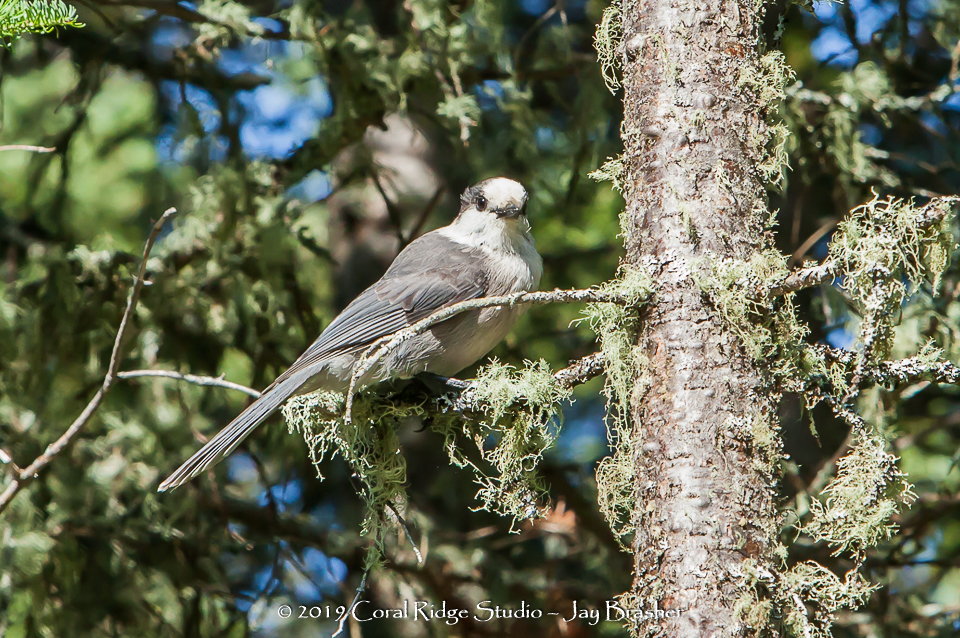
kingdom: Animalia
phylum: Chordata
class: Aves
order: Passeriformes
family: Corvidae
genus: Perisoreus
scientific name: Perisoreus canadensis
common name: Gray jay
